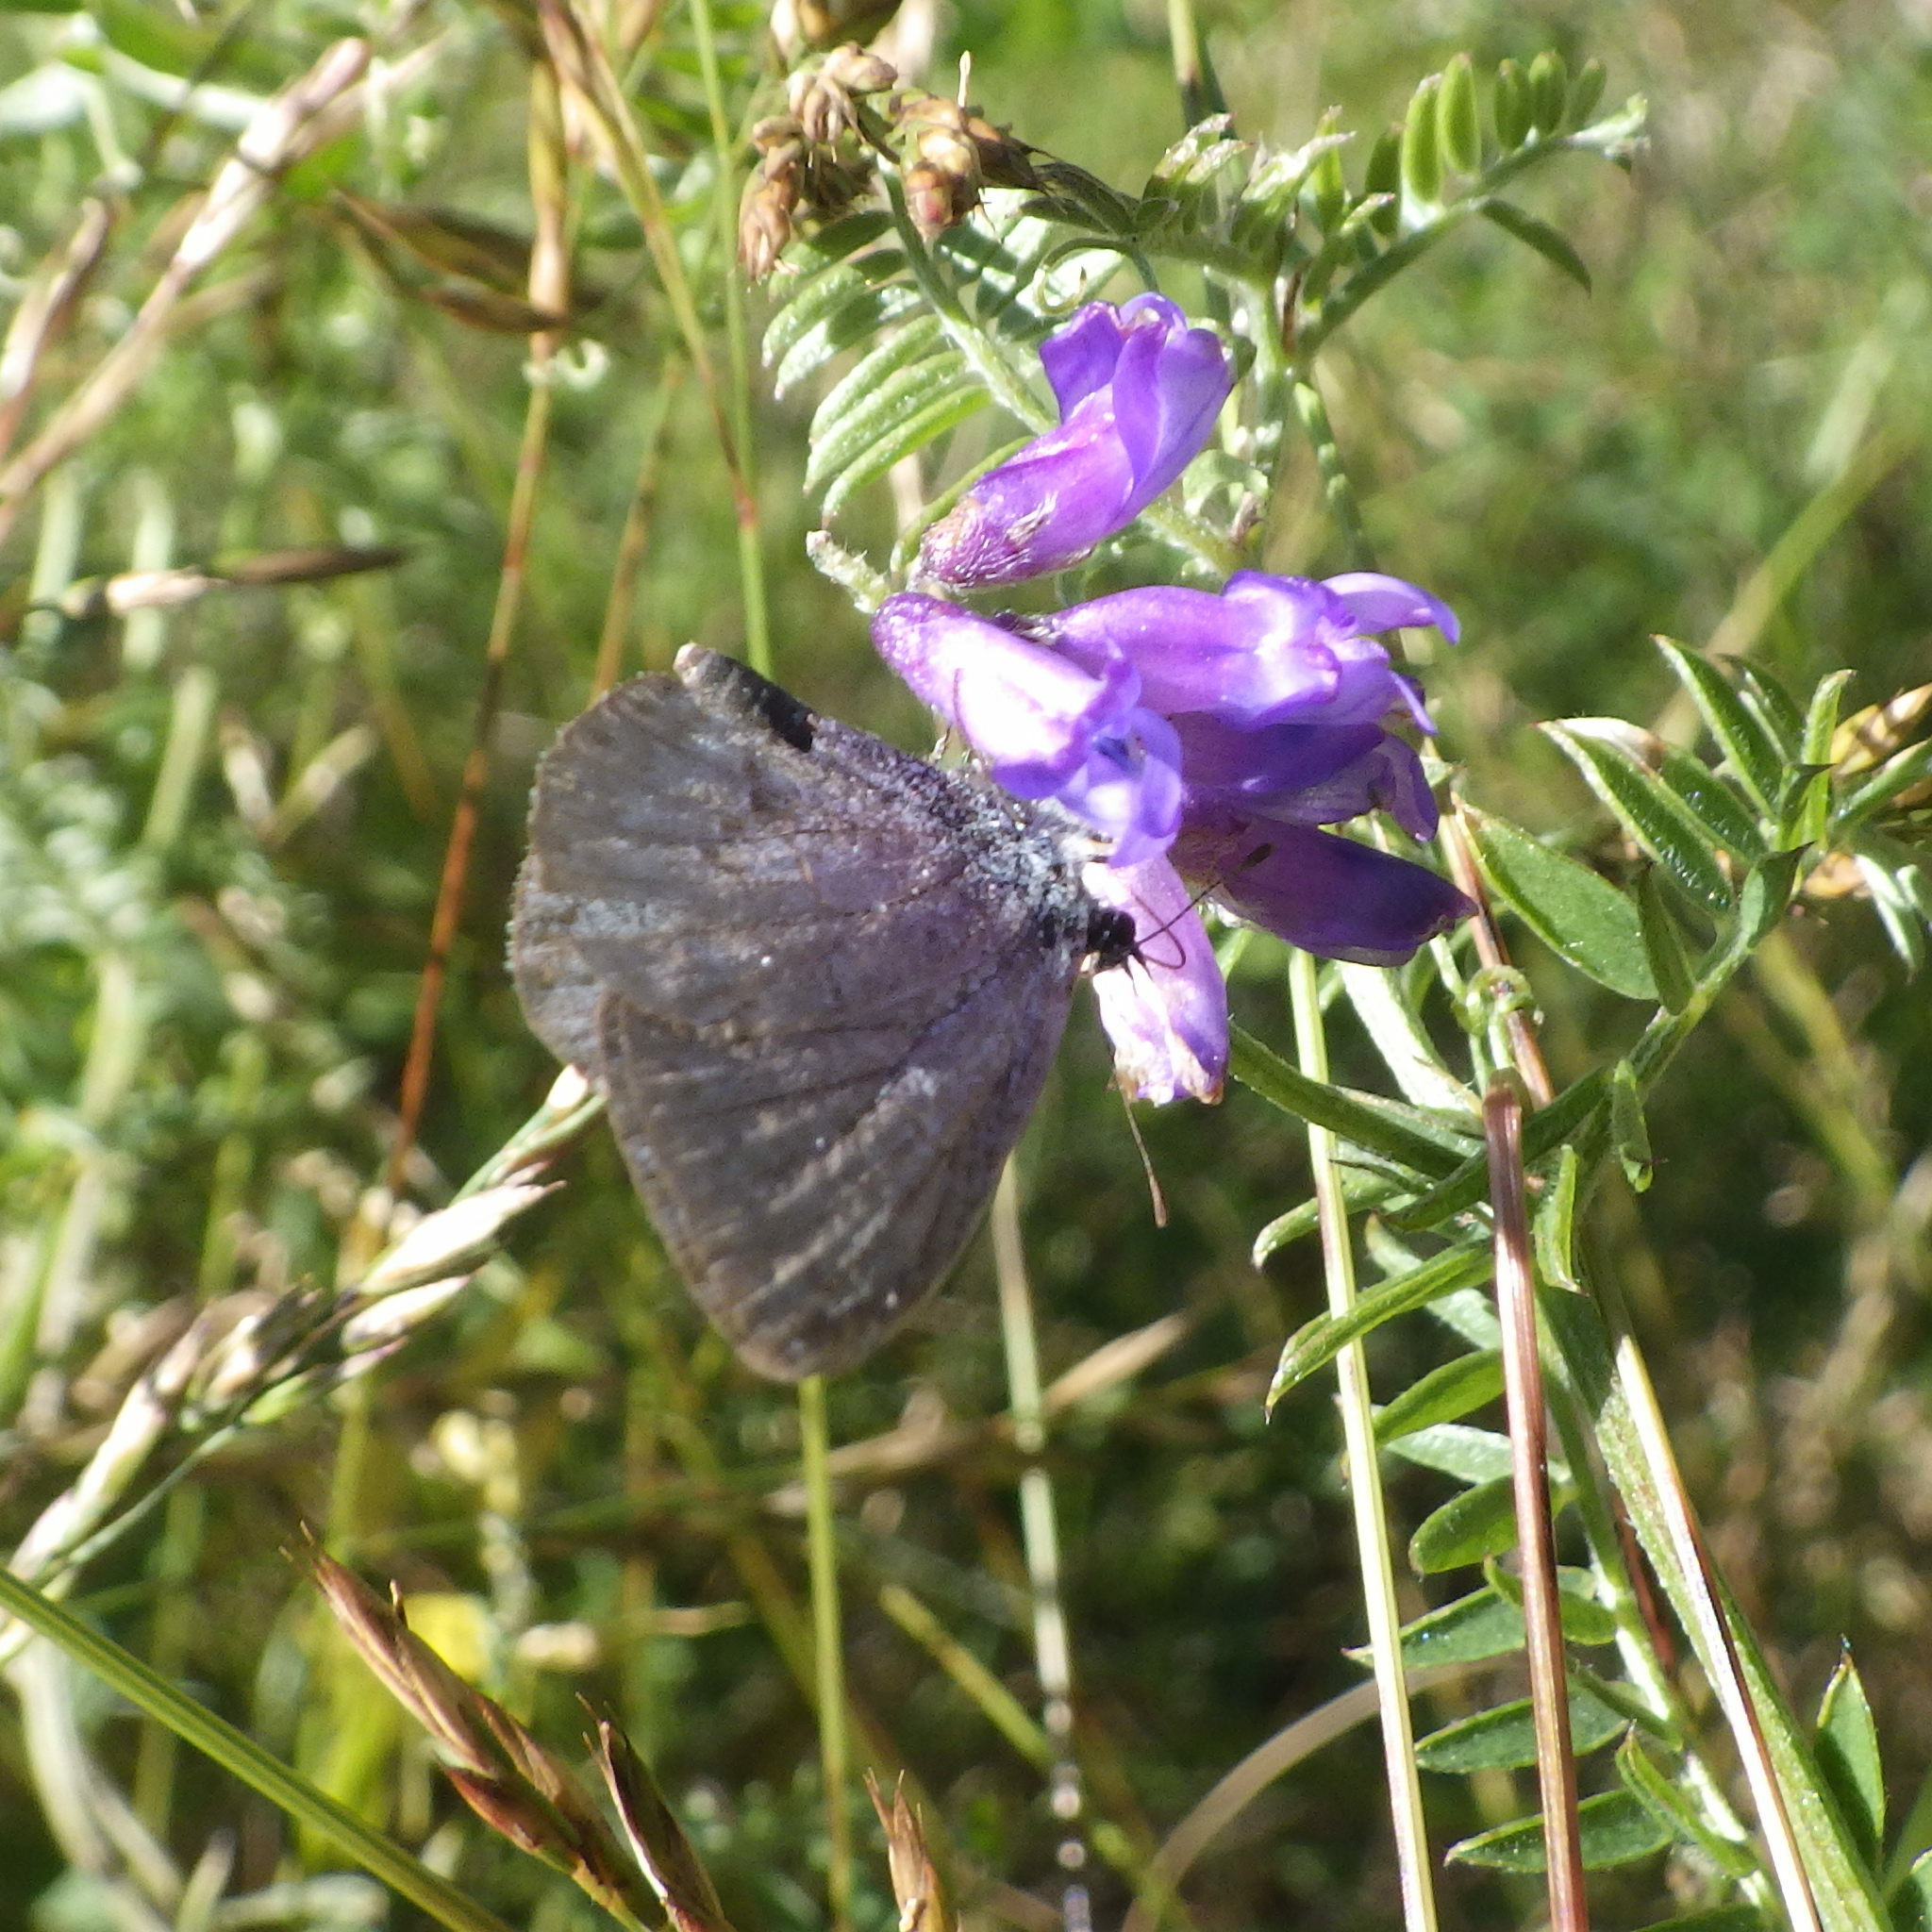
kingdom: Animalia
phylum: Arthropoda
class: Insecta
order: Lepidoptera
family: Lycaenidae
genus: Celastrina
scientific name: Celastrina lucia
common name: Lucia azure
